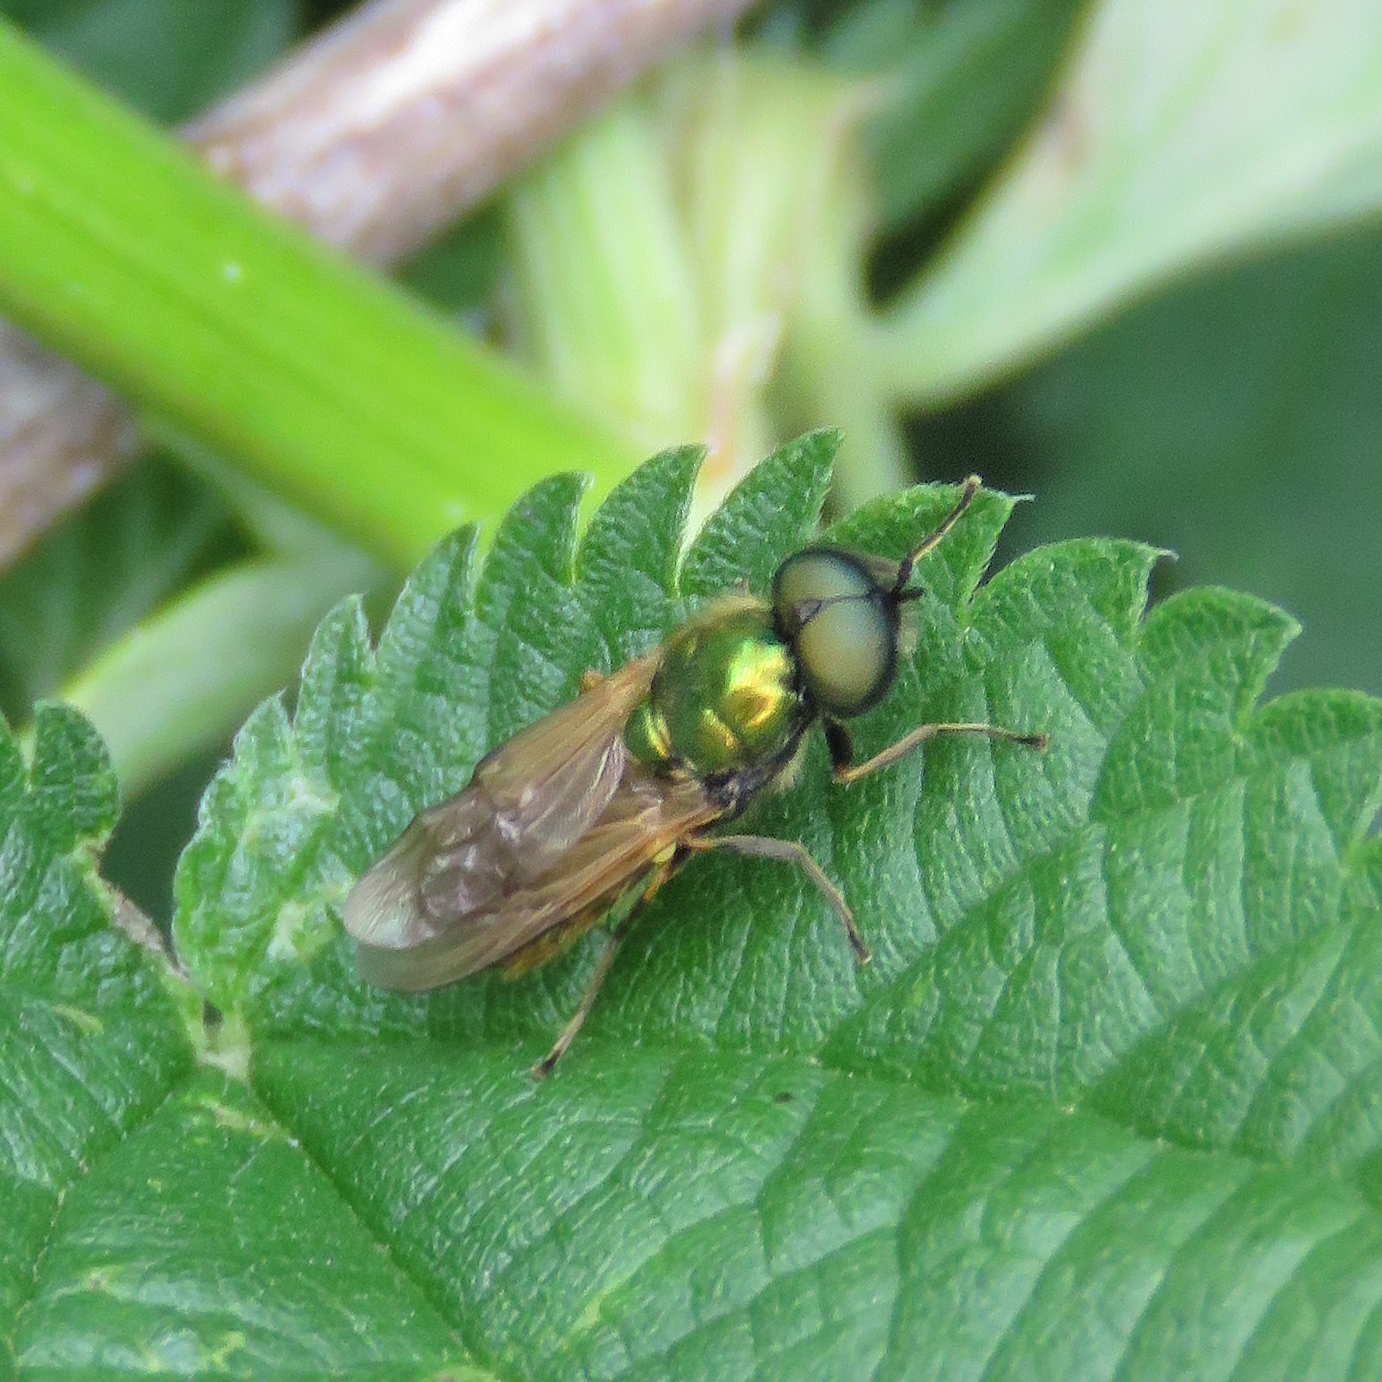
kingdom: Animalia
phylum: Arthropoda
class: Insecta
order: Diptera
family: Stratiomyidae
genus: Chloromyia
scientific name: Chloromyia formosa
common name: Soldier fly
